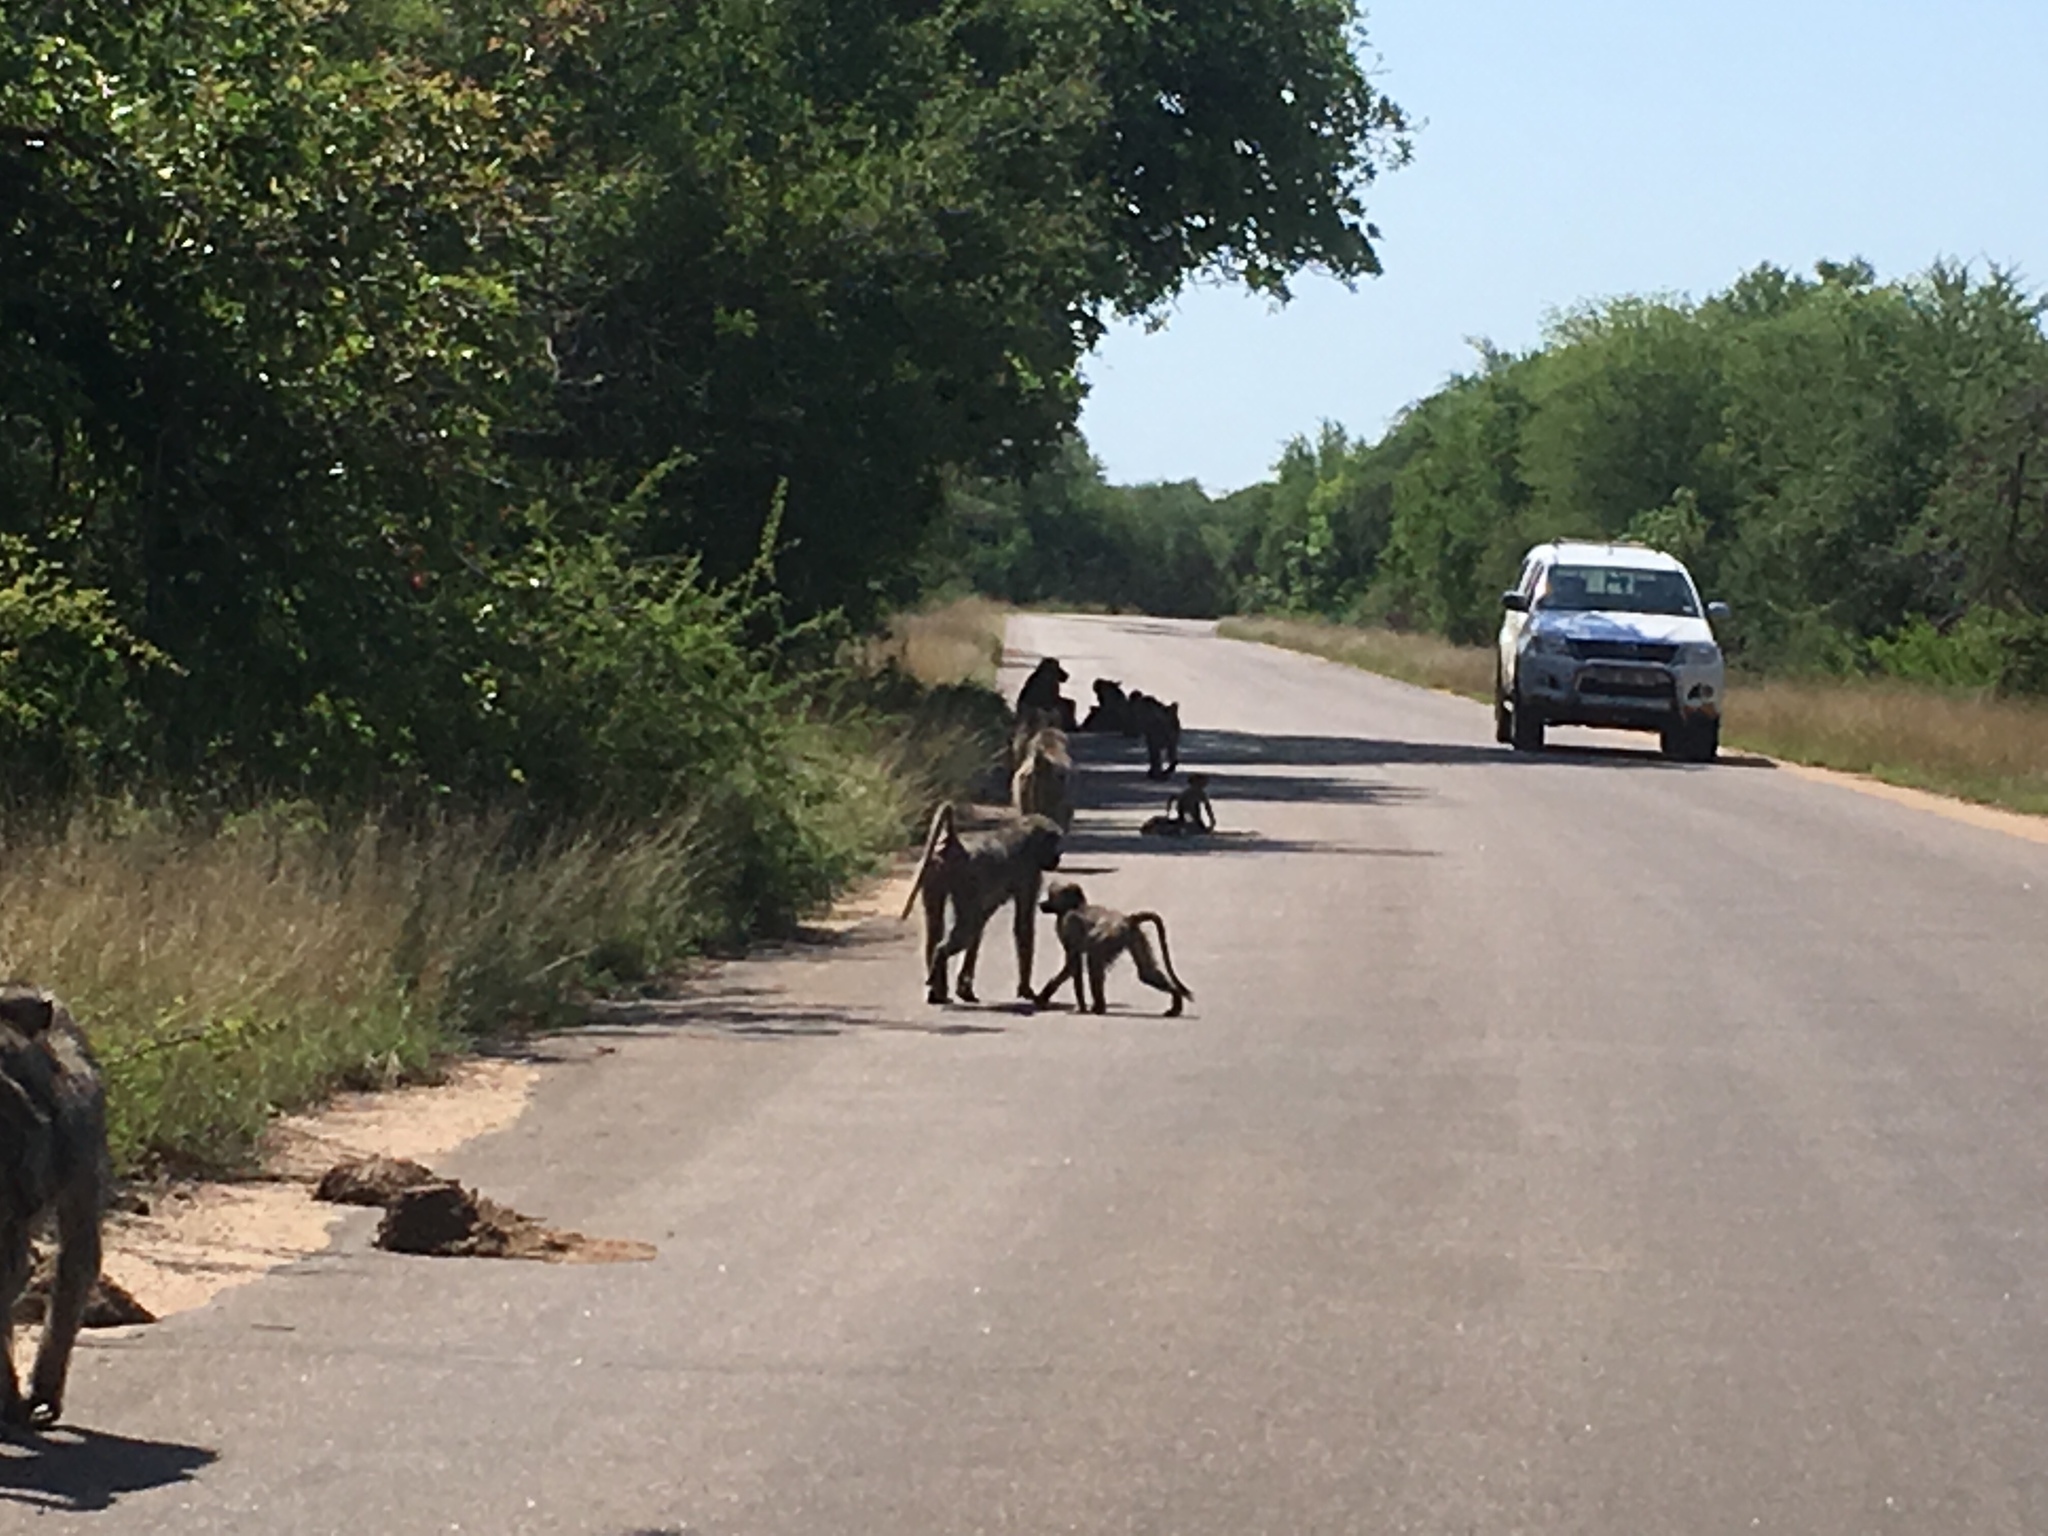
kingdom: Animalia
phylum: Chordata
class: Mammalia
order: Primates
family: Cercopithecidae
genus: Papio
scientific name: Papio ursinus
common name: Chacma baboon
